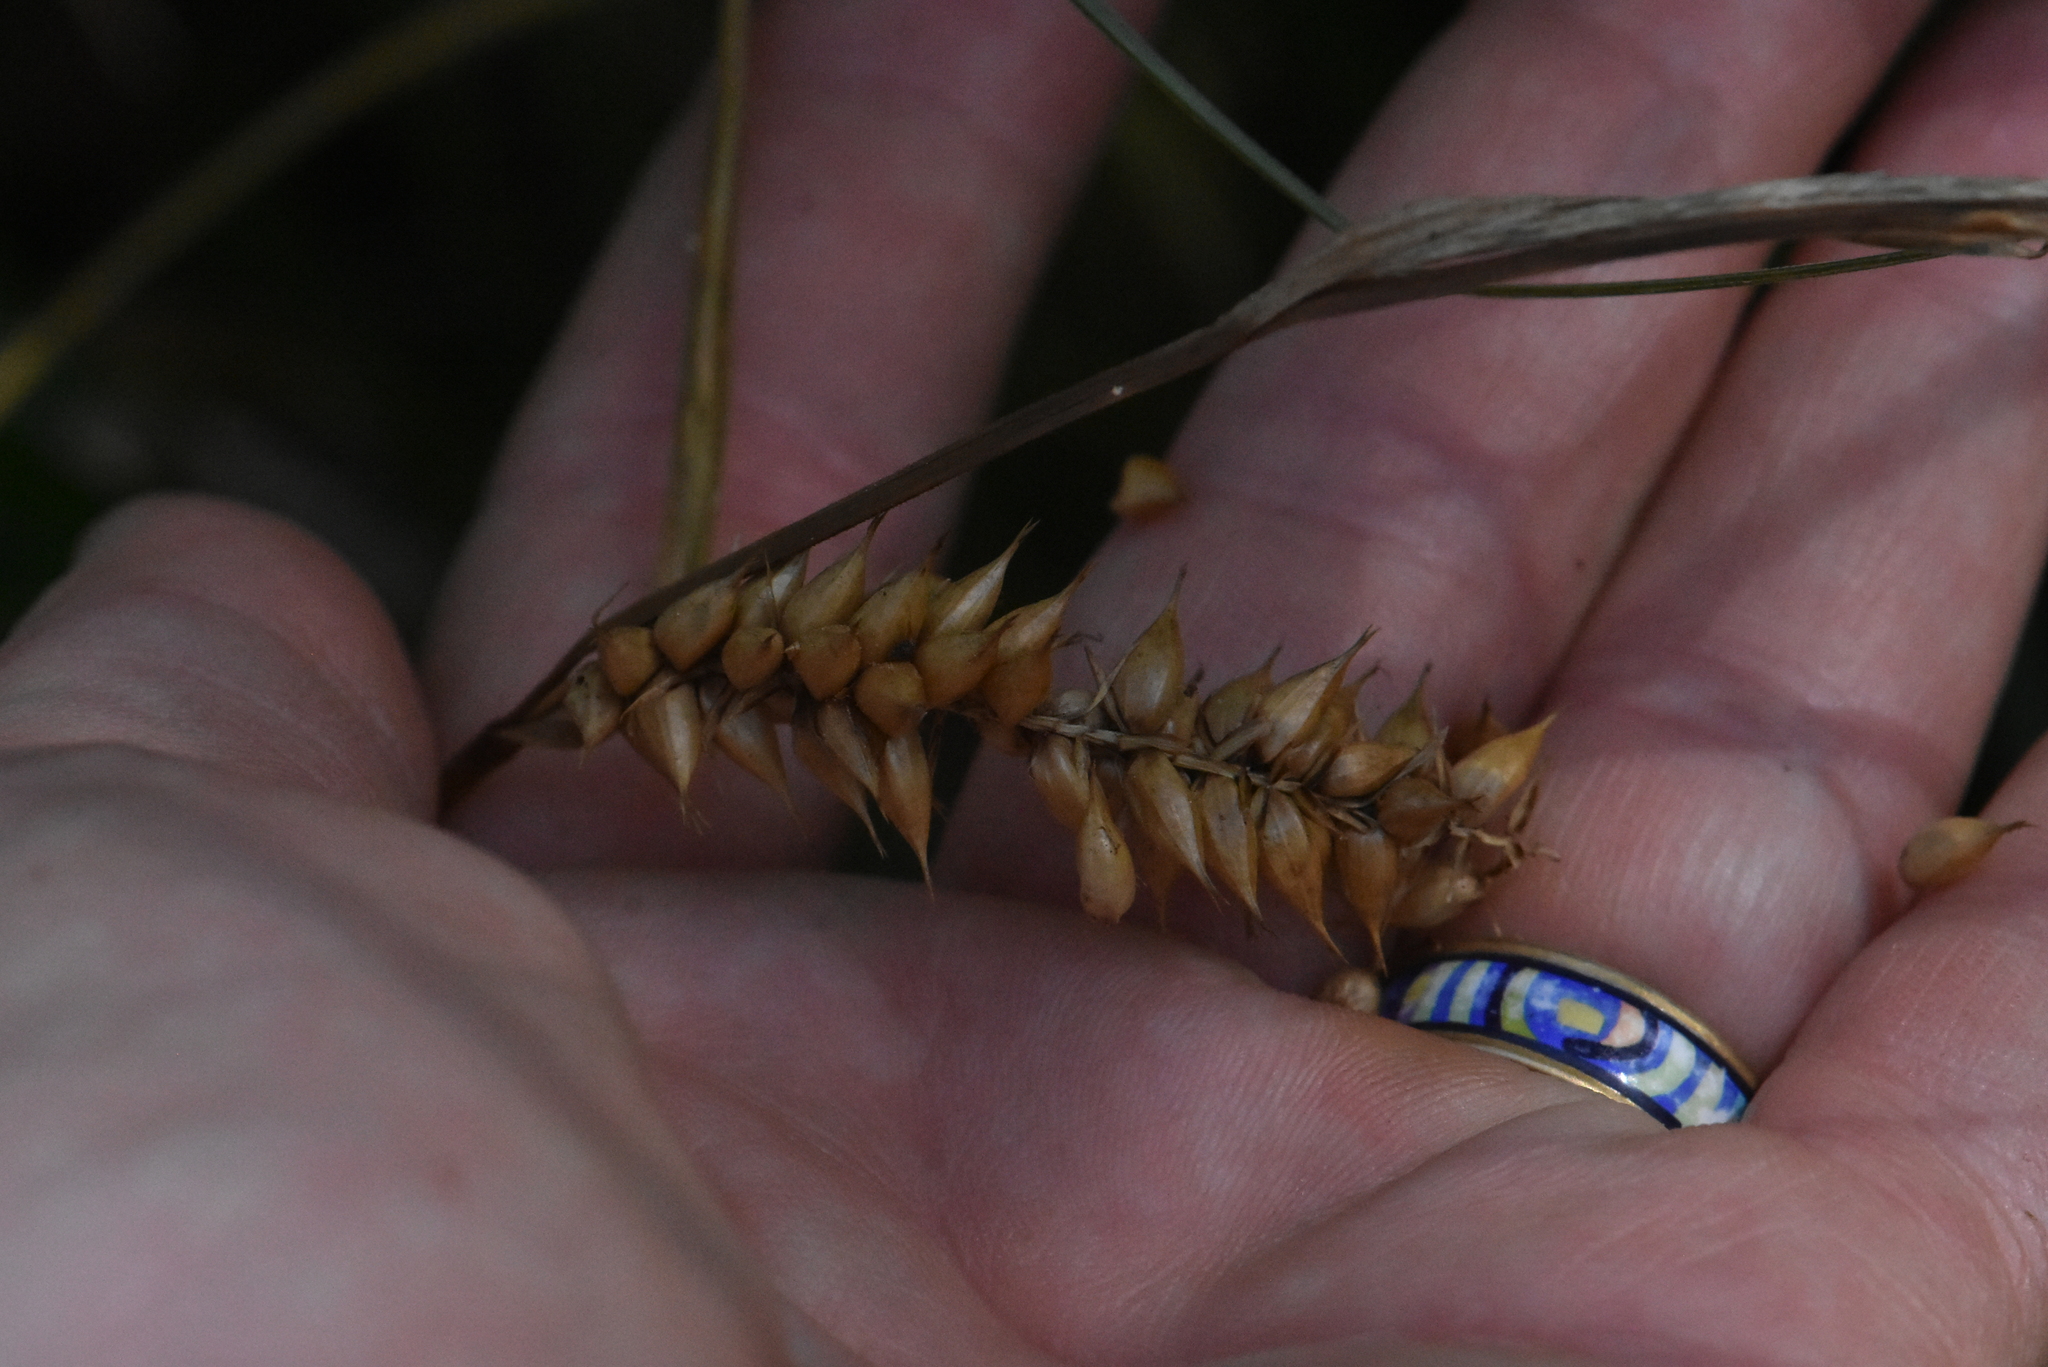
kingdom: Plantae
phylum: Tracheophyta
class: Liliopsida
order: Poales
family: Cyperaceae
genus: Carex
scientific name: Carex vesicaria
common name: Bladder-sedge
